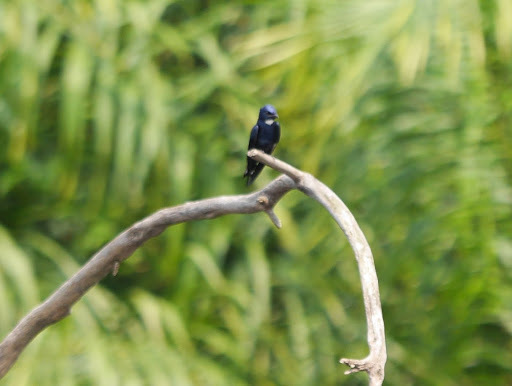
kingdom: Animalia
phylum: Chordata
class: Aves
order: Passeriformes
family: Hirundinidae
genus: Hirundo
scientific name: Hirundo nigrita
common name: White-bibbed swallow
